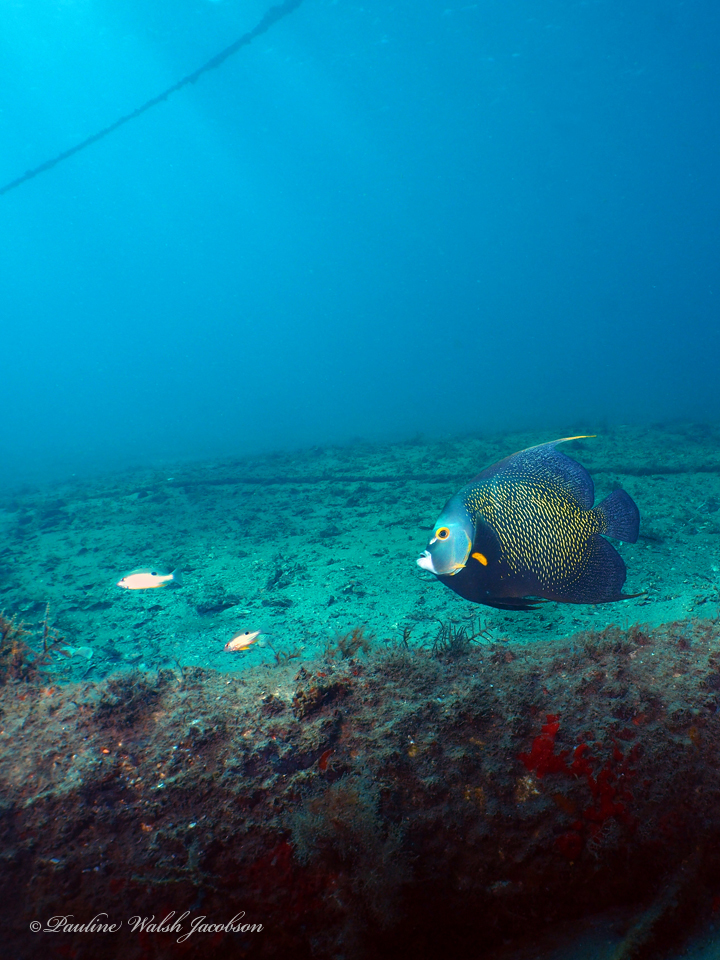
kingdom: Animalia
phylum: Chordata
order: Perciformes
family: Pomacanthidae
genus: Pomacanthus
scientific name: Pomacanthus paru
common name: French angelfish
